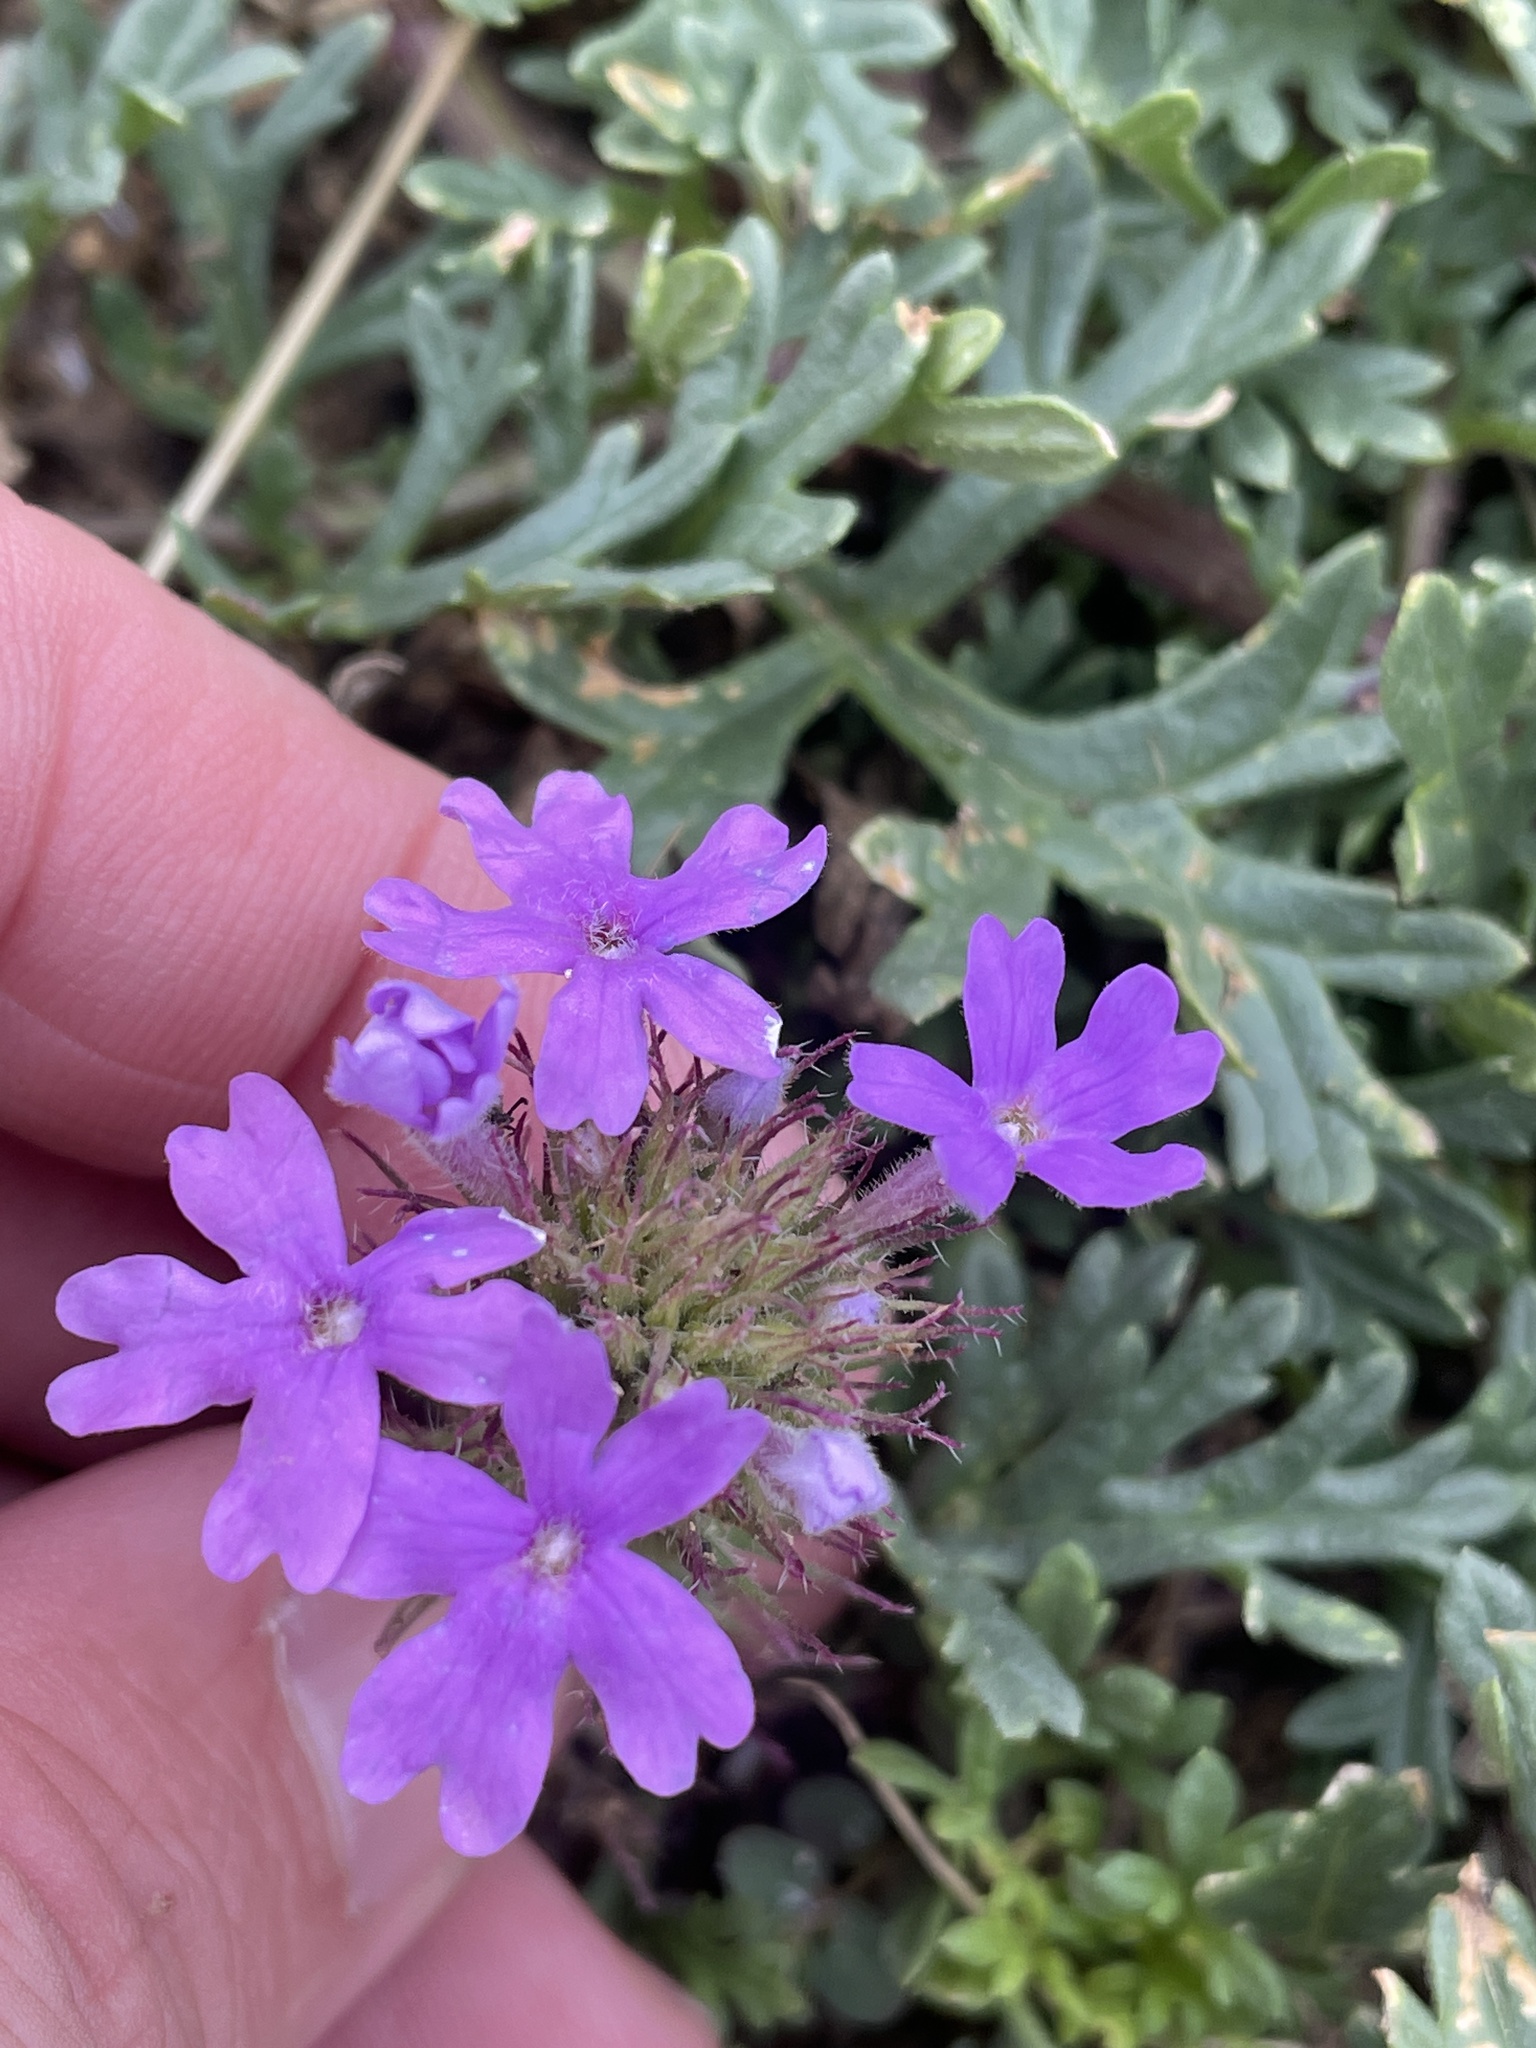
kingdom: Plantae
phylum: Tracheophyta
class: Magnoliopsida
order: Lamiales
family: Verbenaceae
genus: Verbena
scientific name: Verbena bipinnatifida
